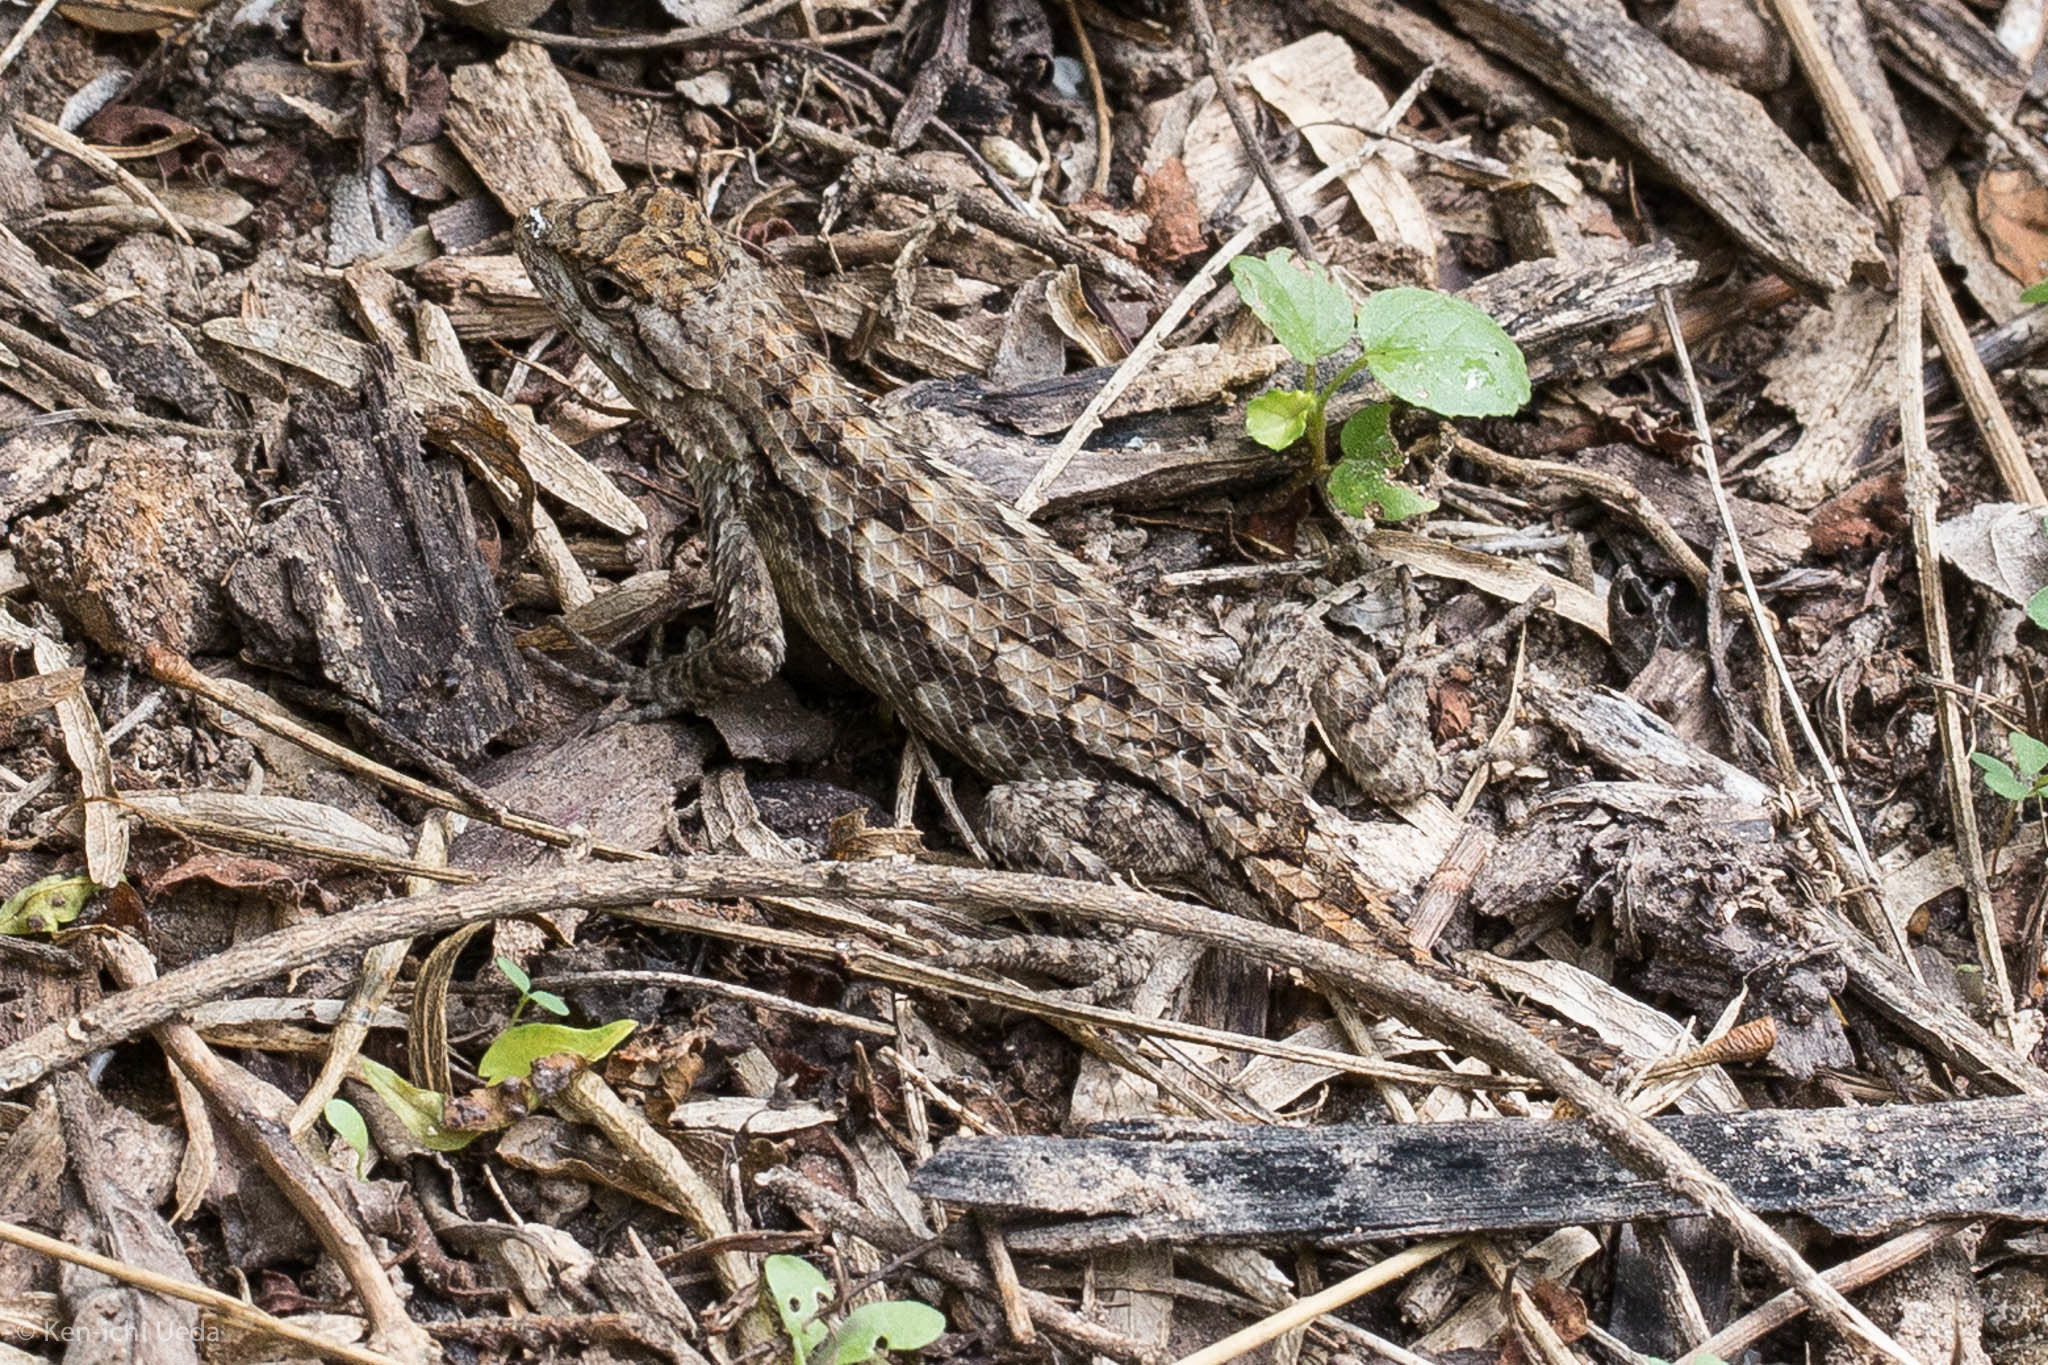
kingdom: Animalia
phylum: Chordata
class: Squamata
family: Phrynosomatidae
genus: Sceloporus
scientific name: Sceloporus olivaceus
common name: Texas spiny lizard
